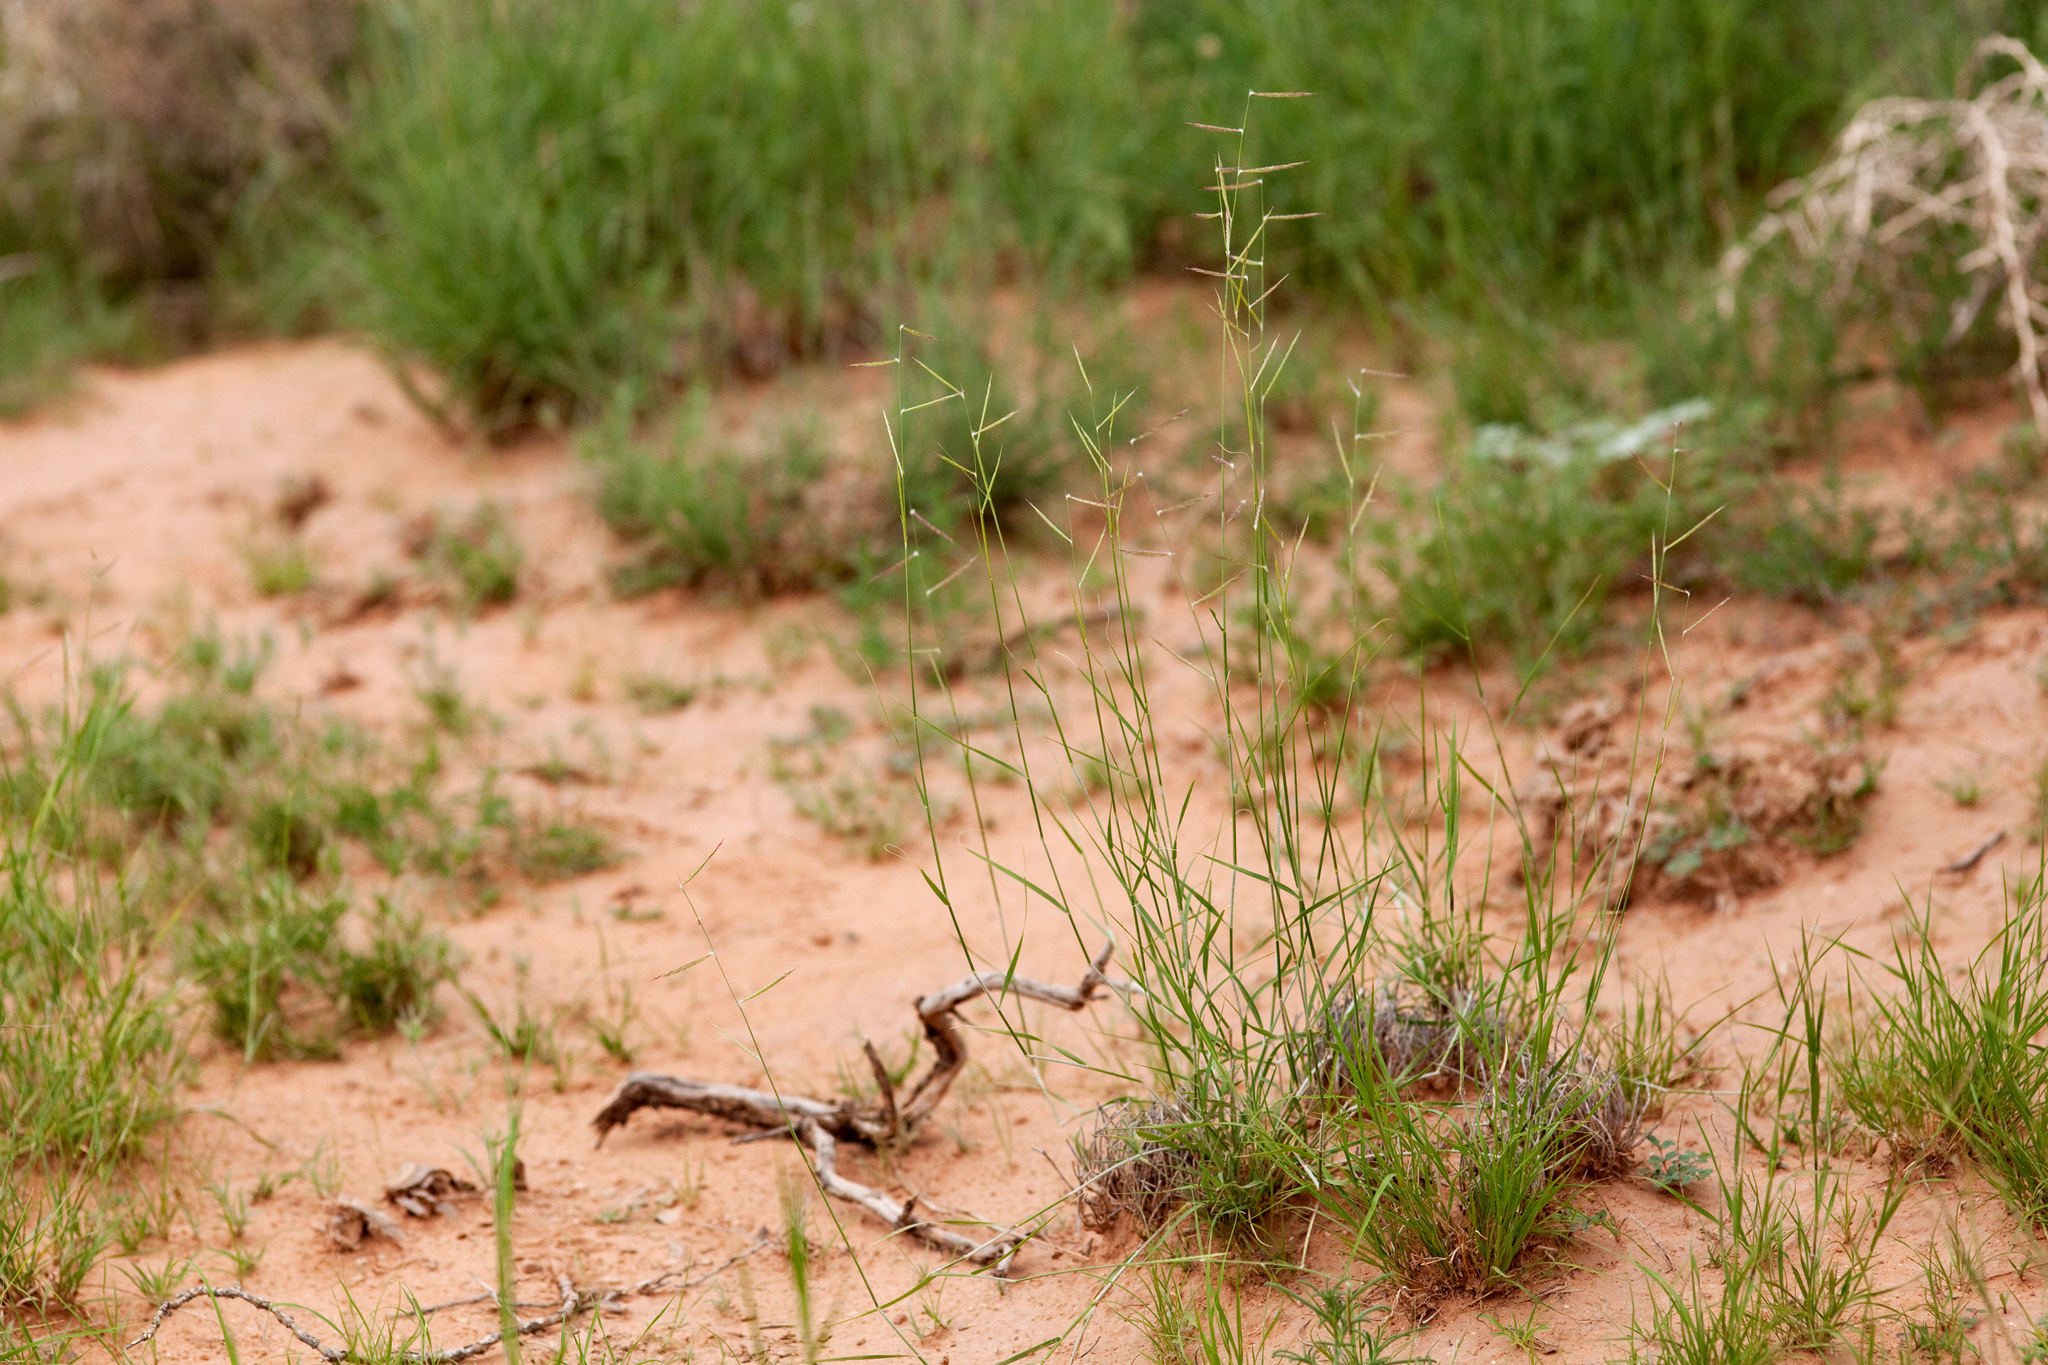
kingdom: Plantae
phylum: Tracheophyta
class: Liliopsida
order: Poales
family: Poaceae
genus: Bouteloua
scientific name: Bouteloua eriopoda
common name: Woolly foot grama
